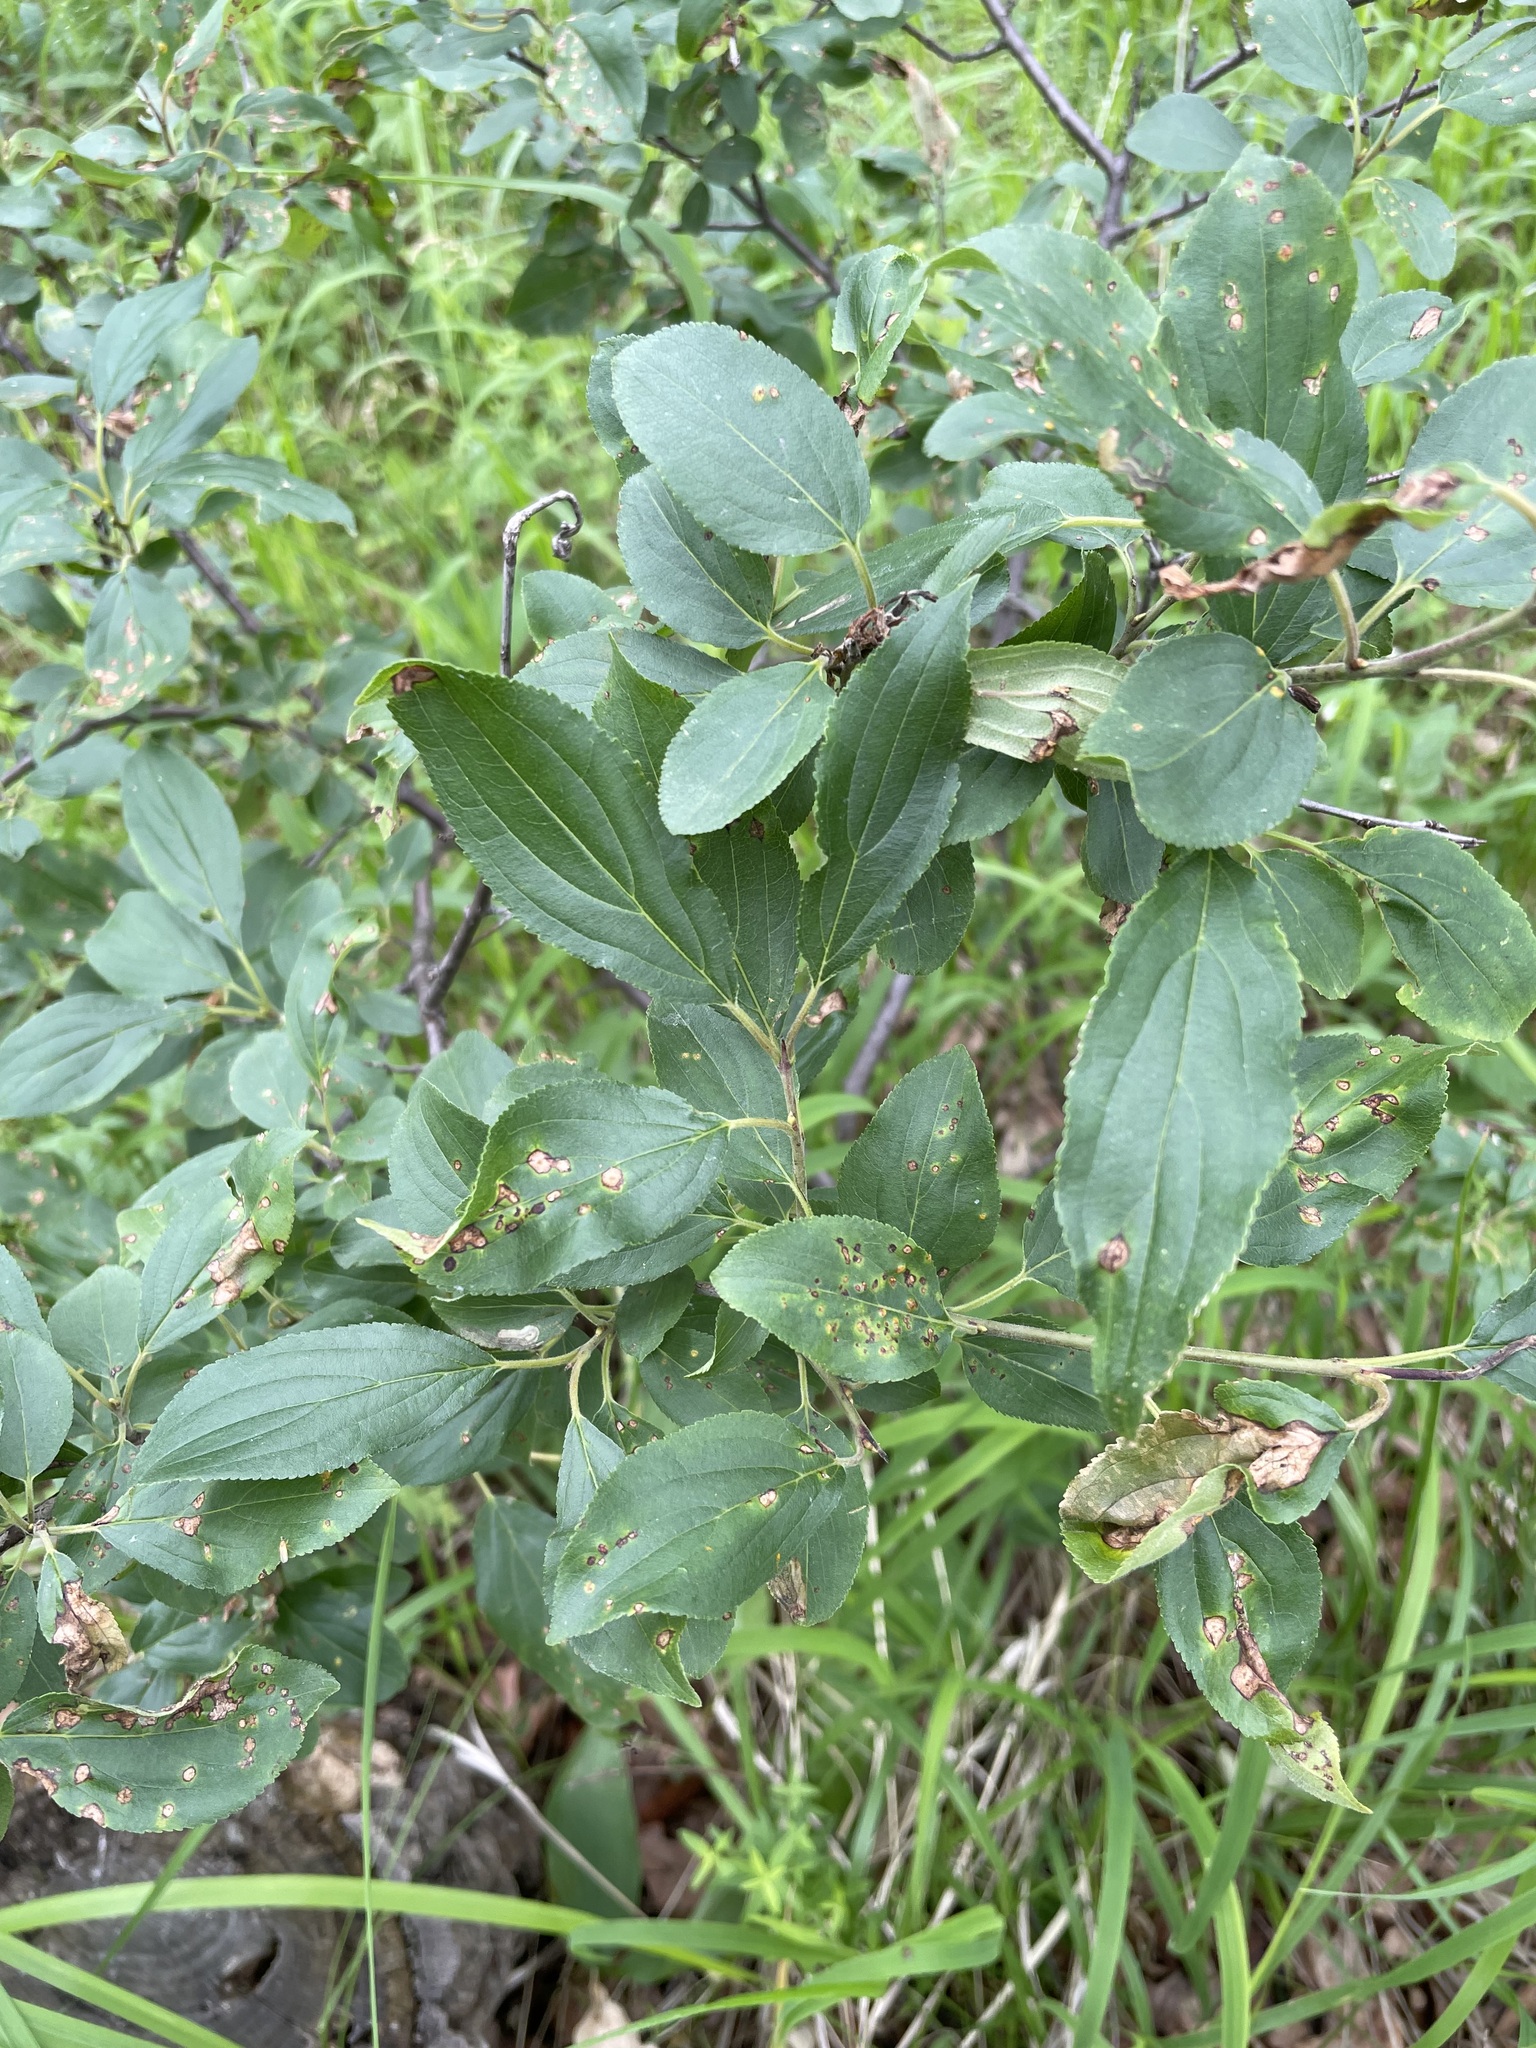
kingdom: Plantae
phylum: Tracheophyta
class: Magnoliopsida
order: Rosales
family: Rhamnaceae
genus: Rhamnus
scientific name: Rhamnus cathartica
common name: Common buckthorn
